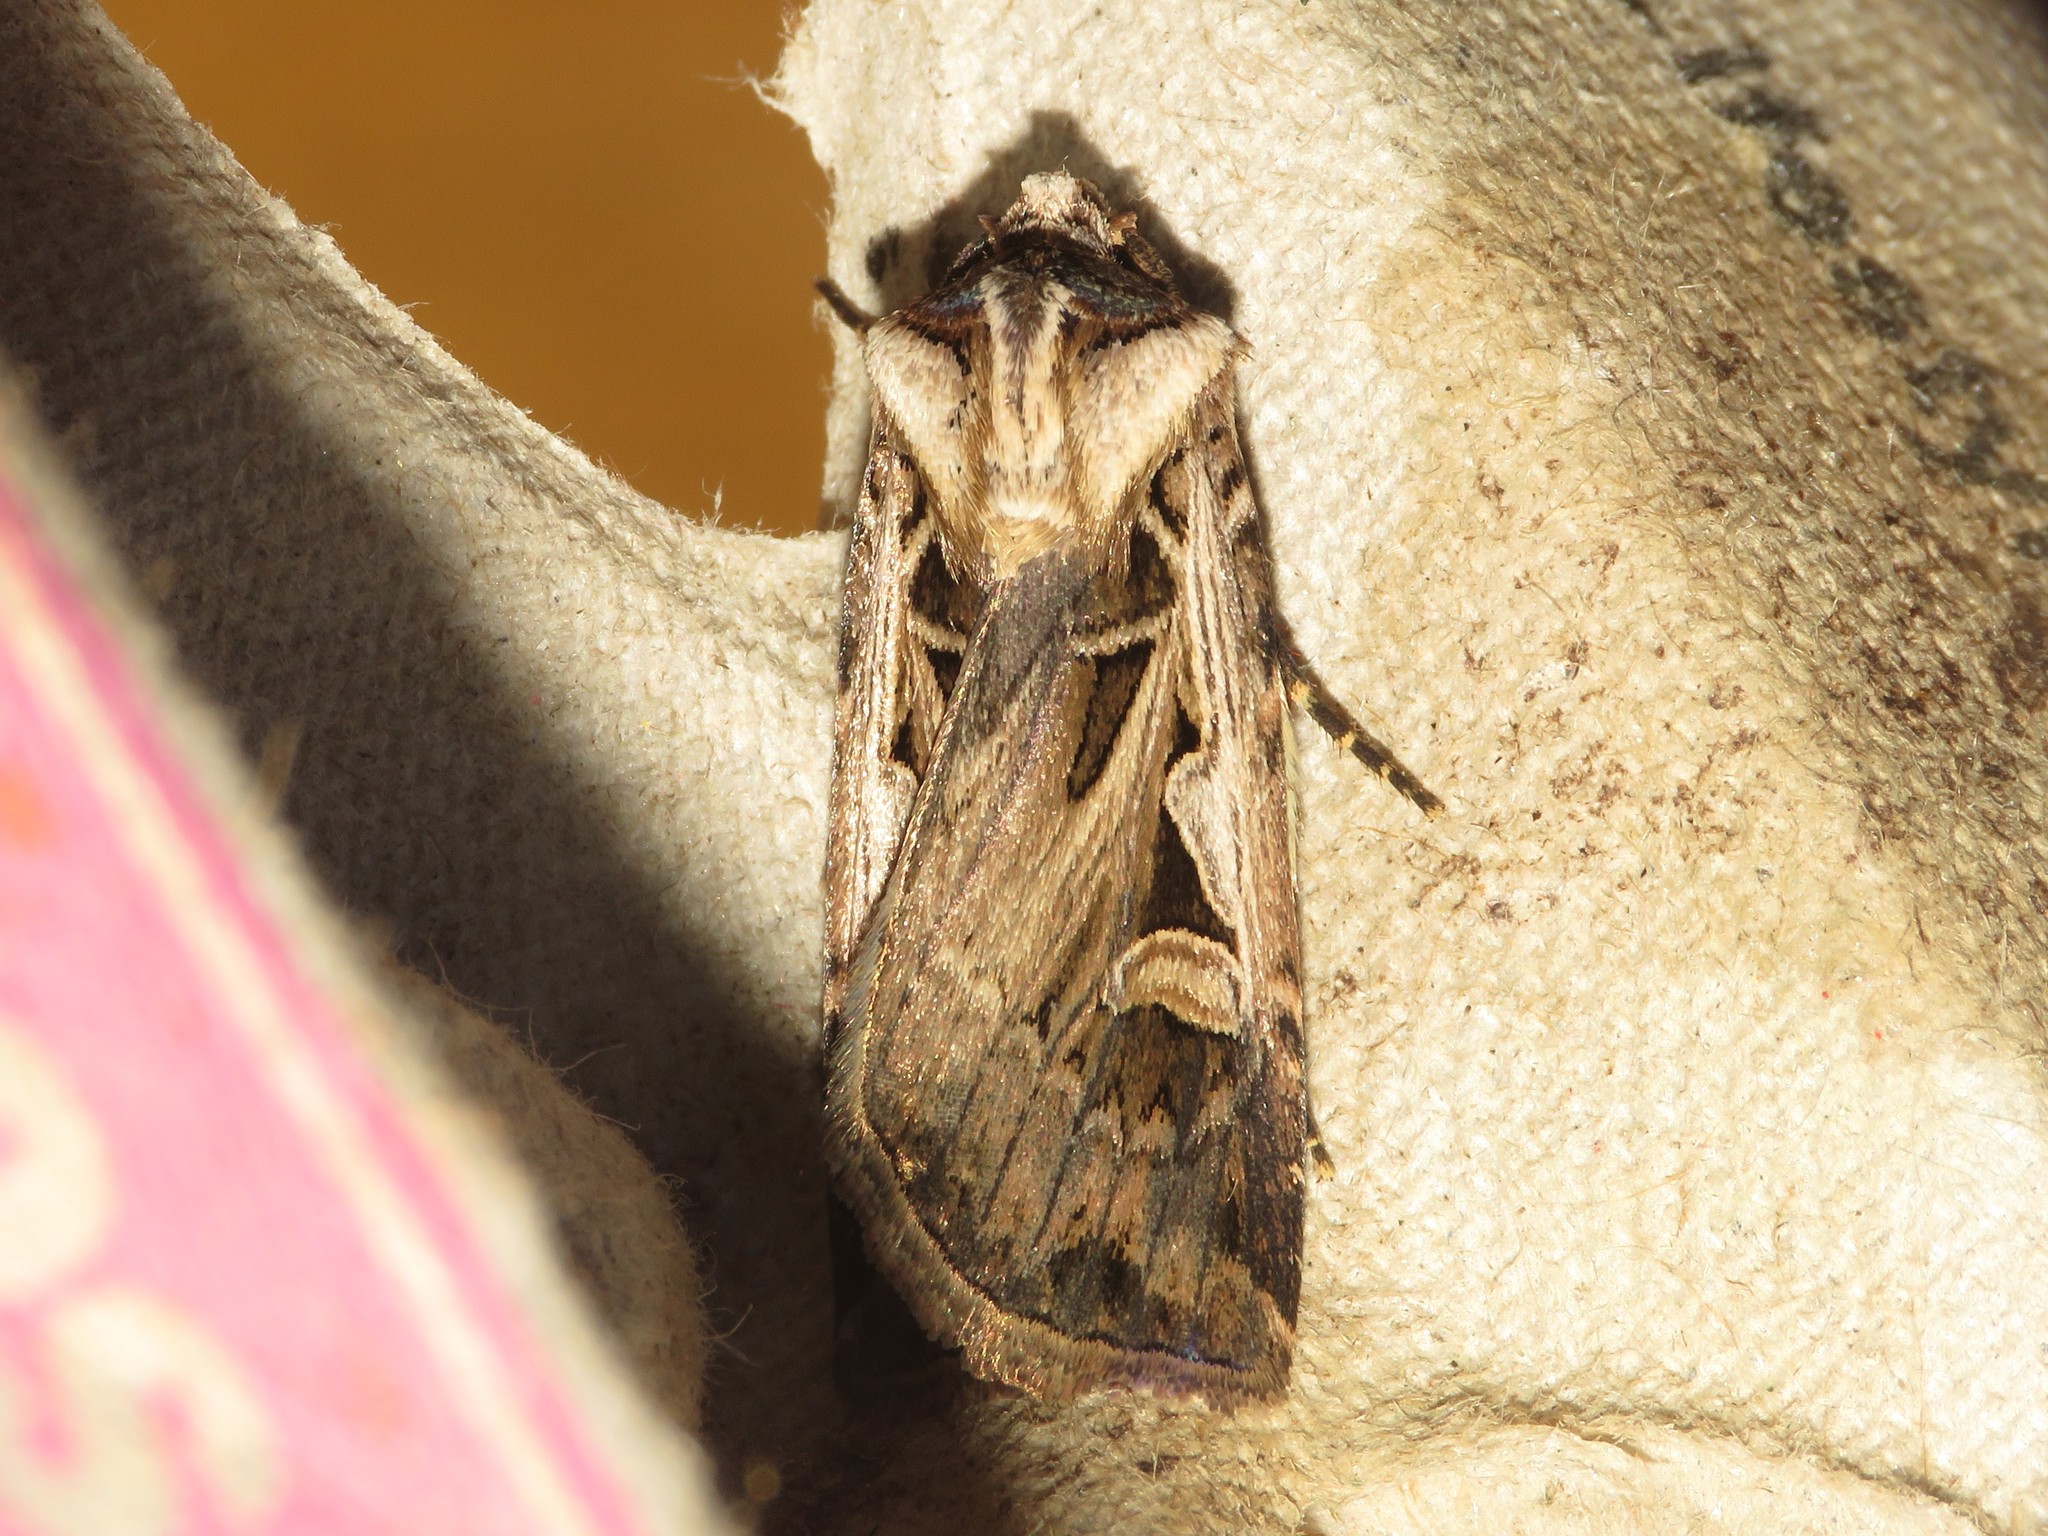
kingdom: Animalia
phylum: Arthropoda
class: Insecta
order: Lepidoptera
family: Noctuidae
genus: Feltia
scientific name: Feltia
